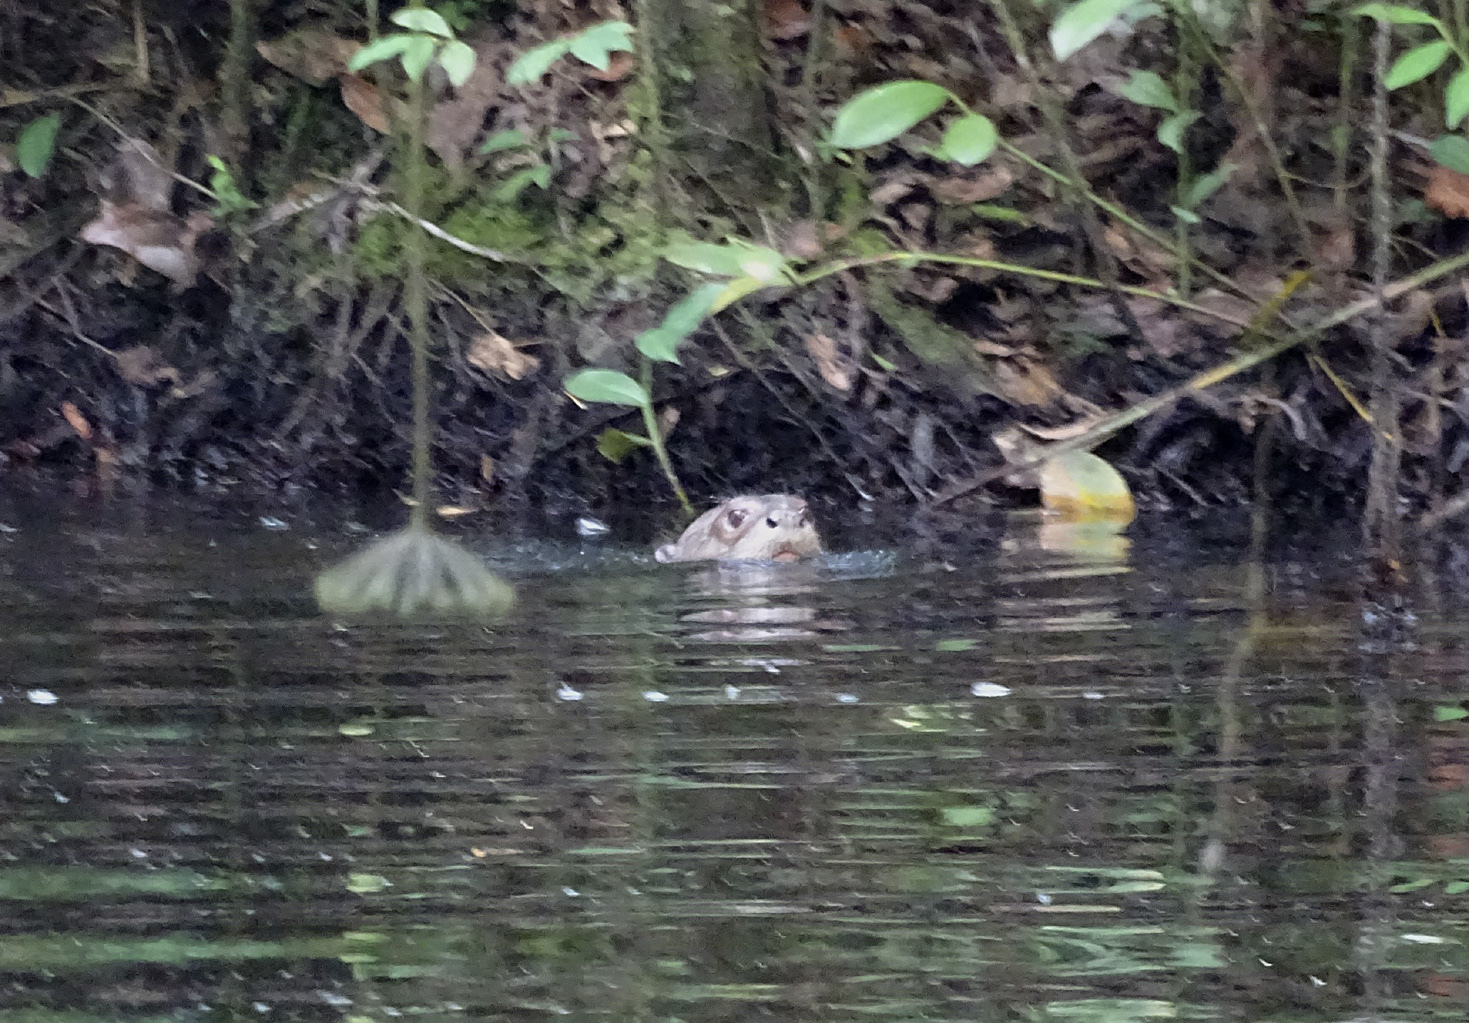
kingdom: Animalia
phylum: Chordata
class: Mammalia
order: Carnivora
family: Mustelidae
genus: Pteronura
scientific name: Pteronura brasiliensis
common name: Giant otter
